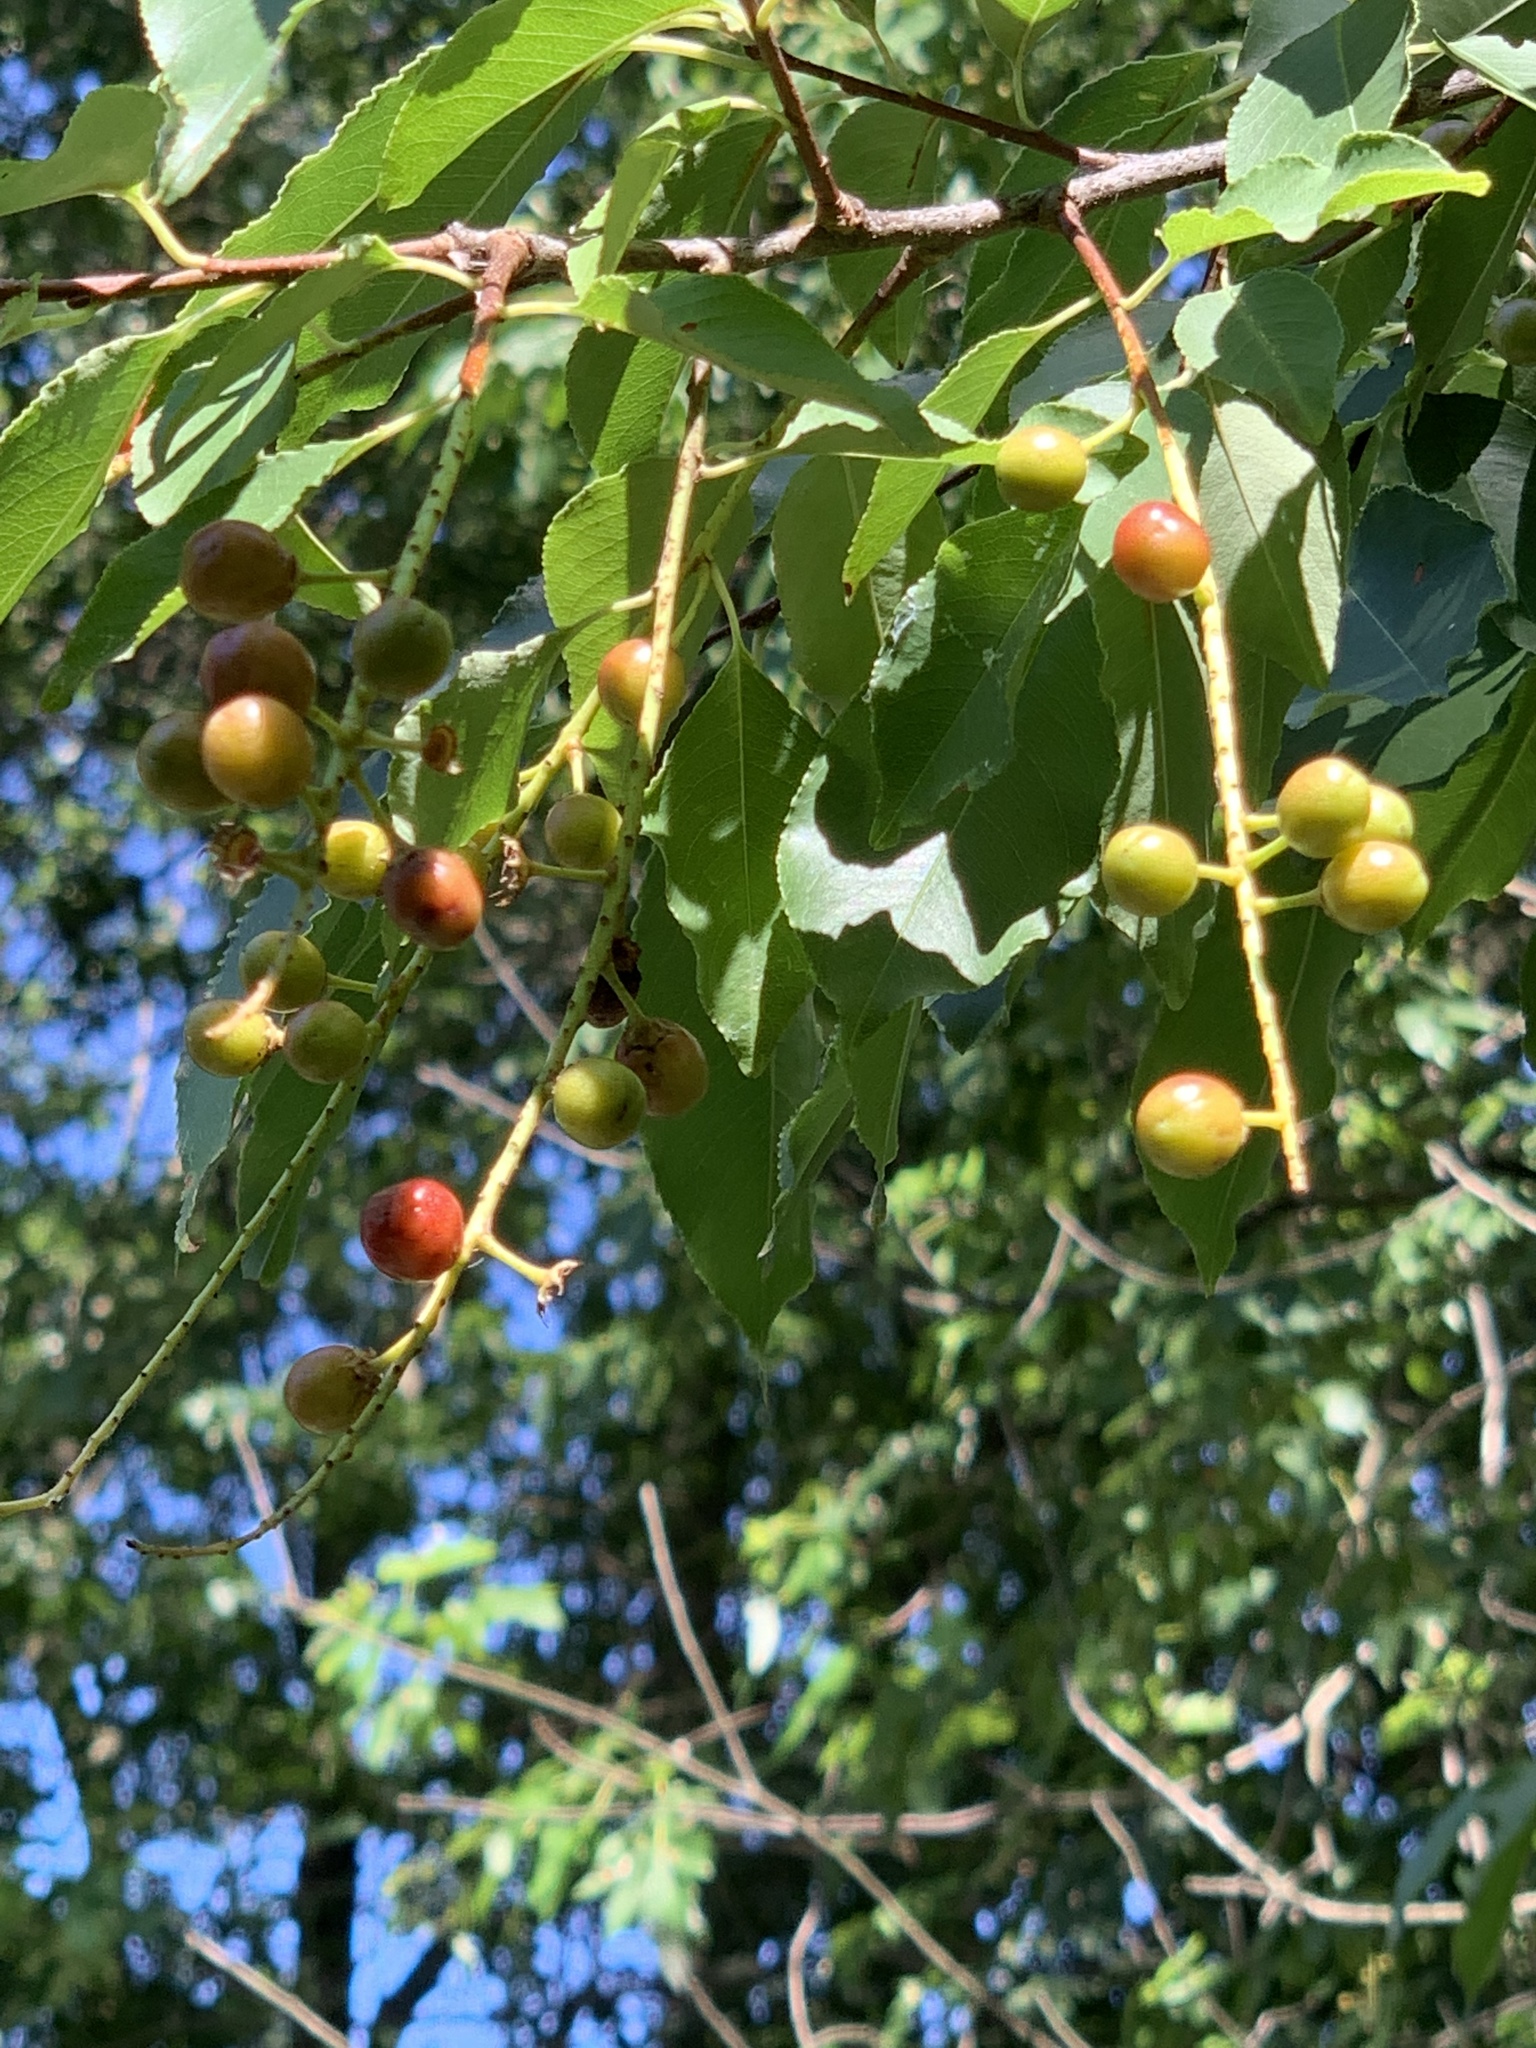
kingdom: Plantae
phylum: Tracheophyta
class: Magnoliopsida
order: Rosales
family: Rosaceae
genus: Prunus
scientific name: Prunus serotina
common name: Black cherry
